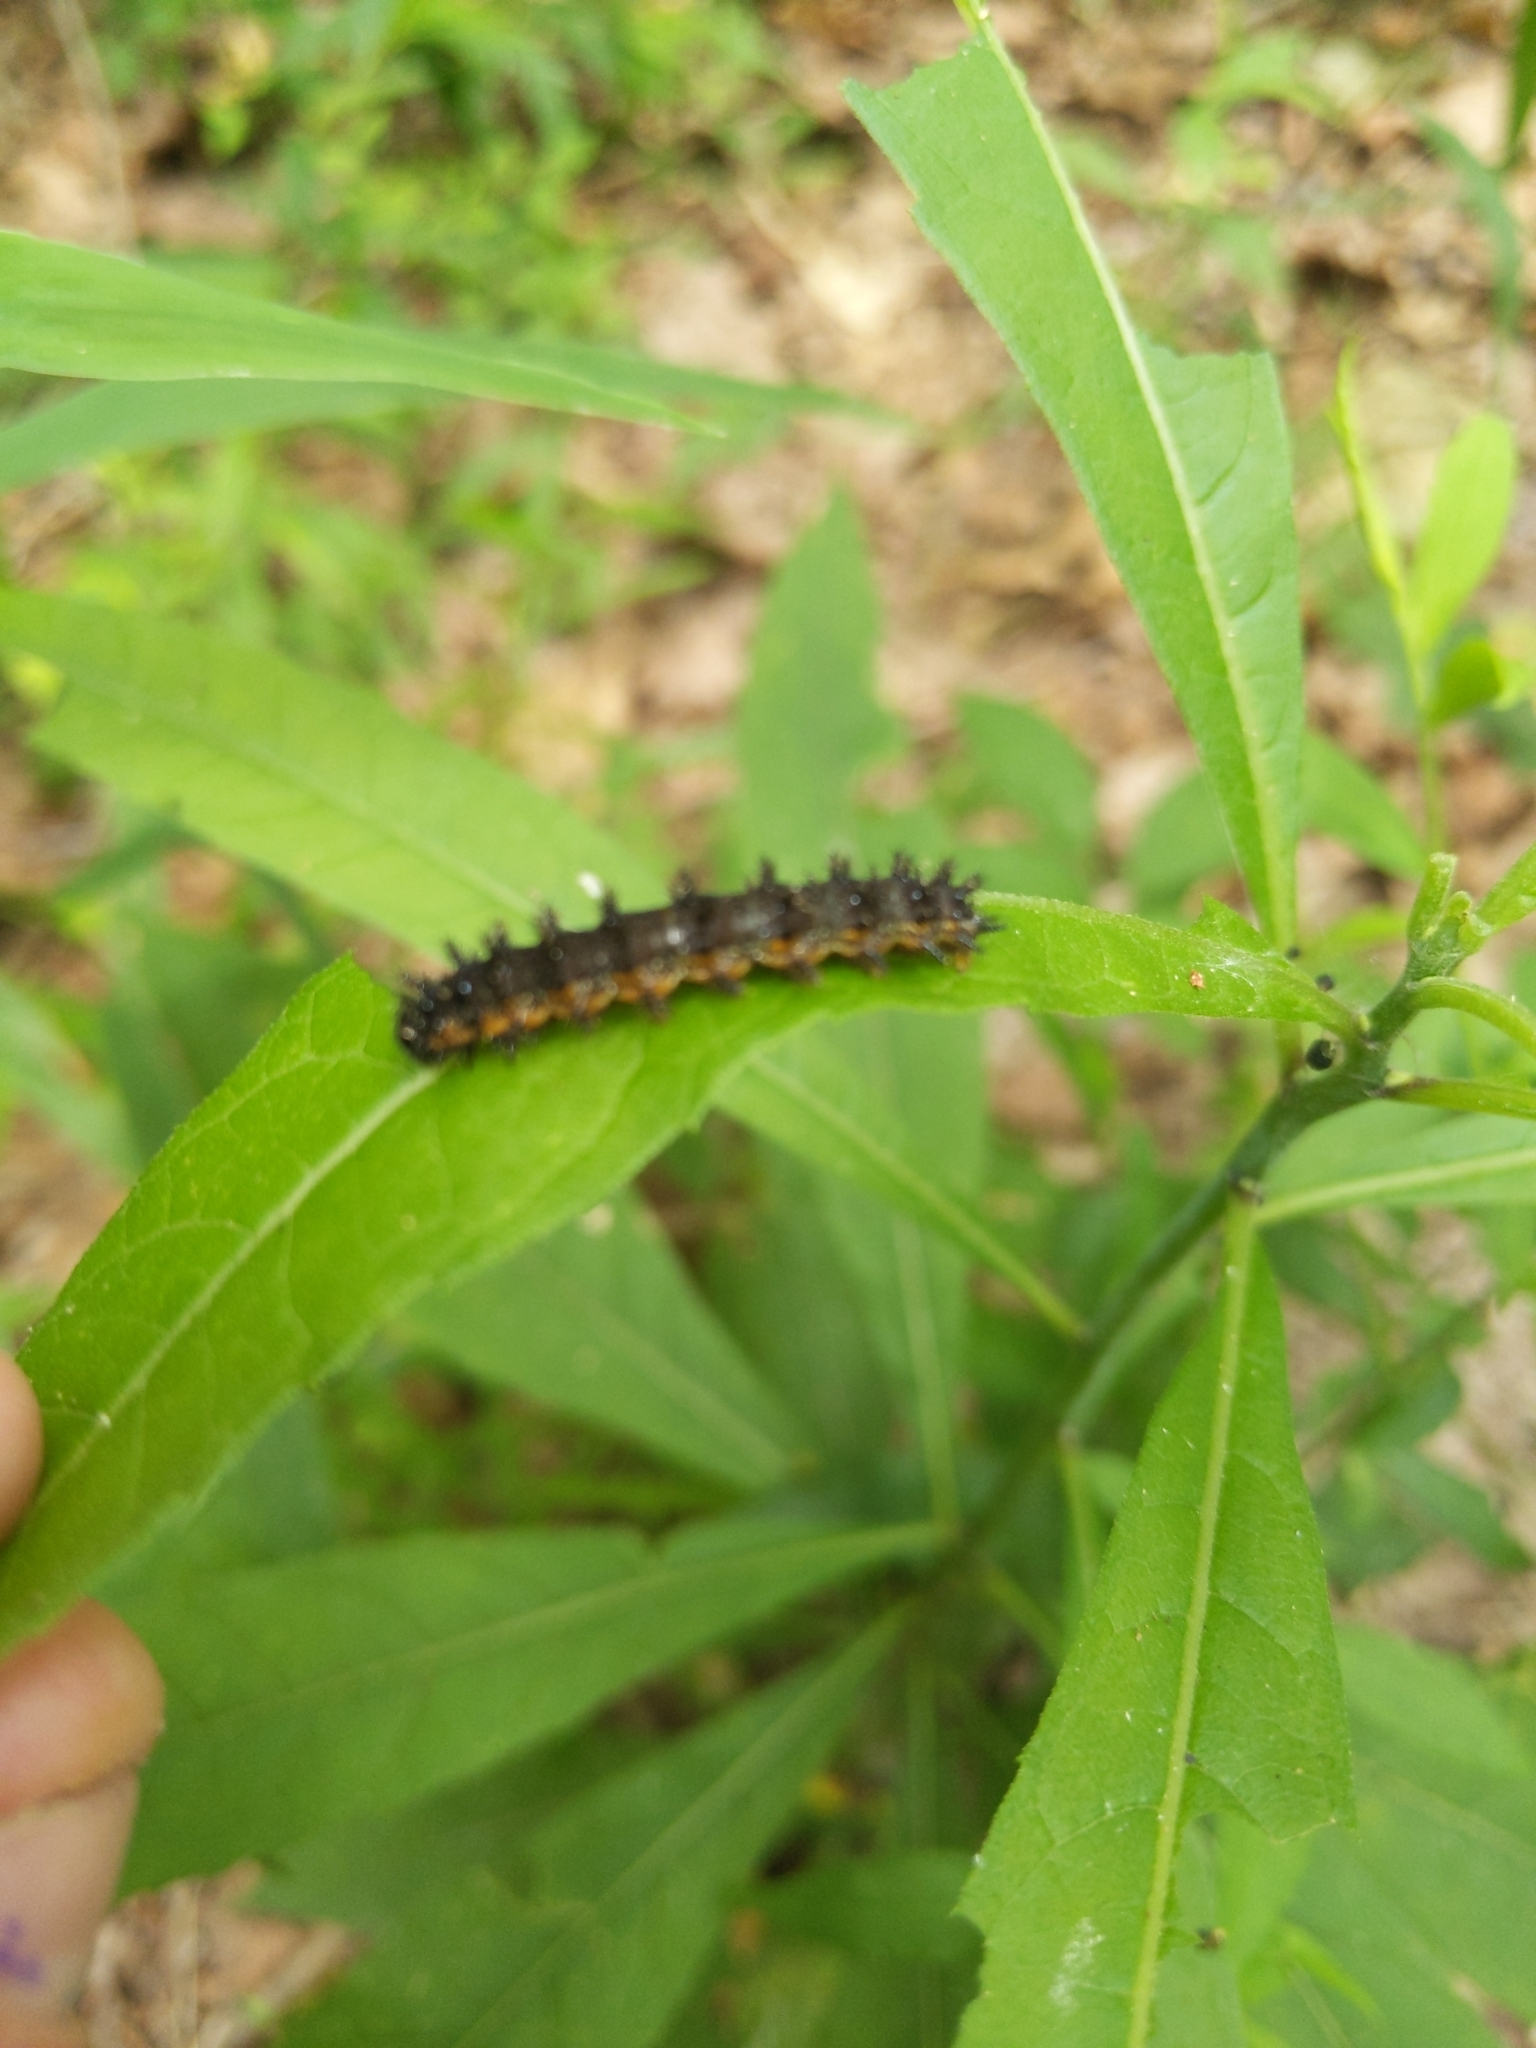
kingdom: Animalia
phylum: Arthropoda
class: Insecta
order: Lepidoptera
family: Nymphalidae
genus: Chlosyne
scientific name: Chlosyne nycteis
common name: Silvery checkerspot
